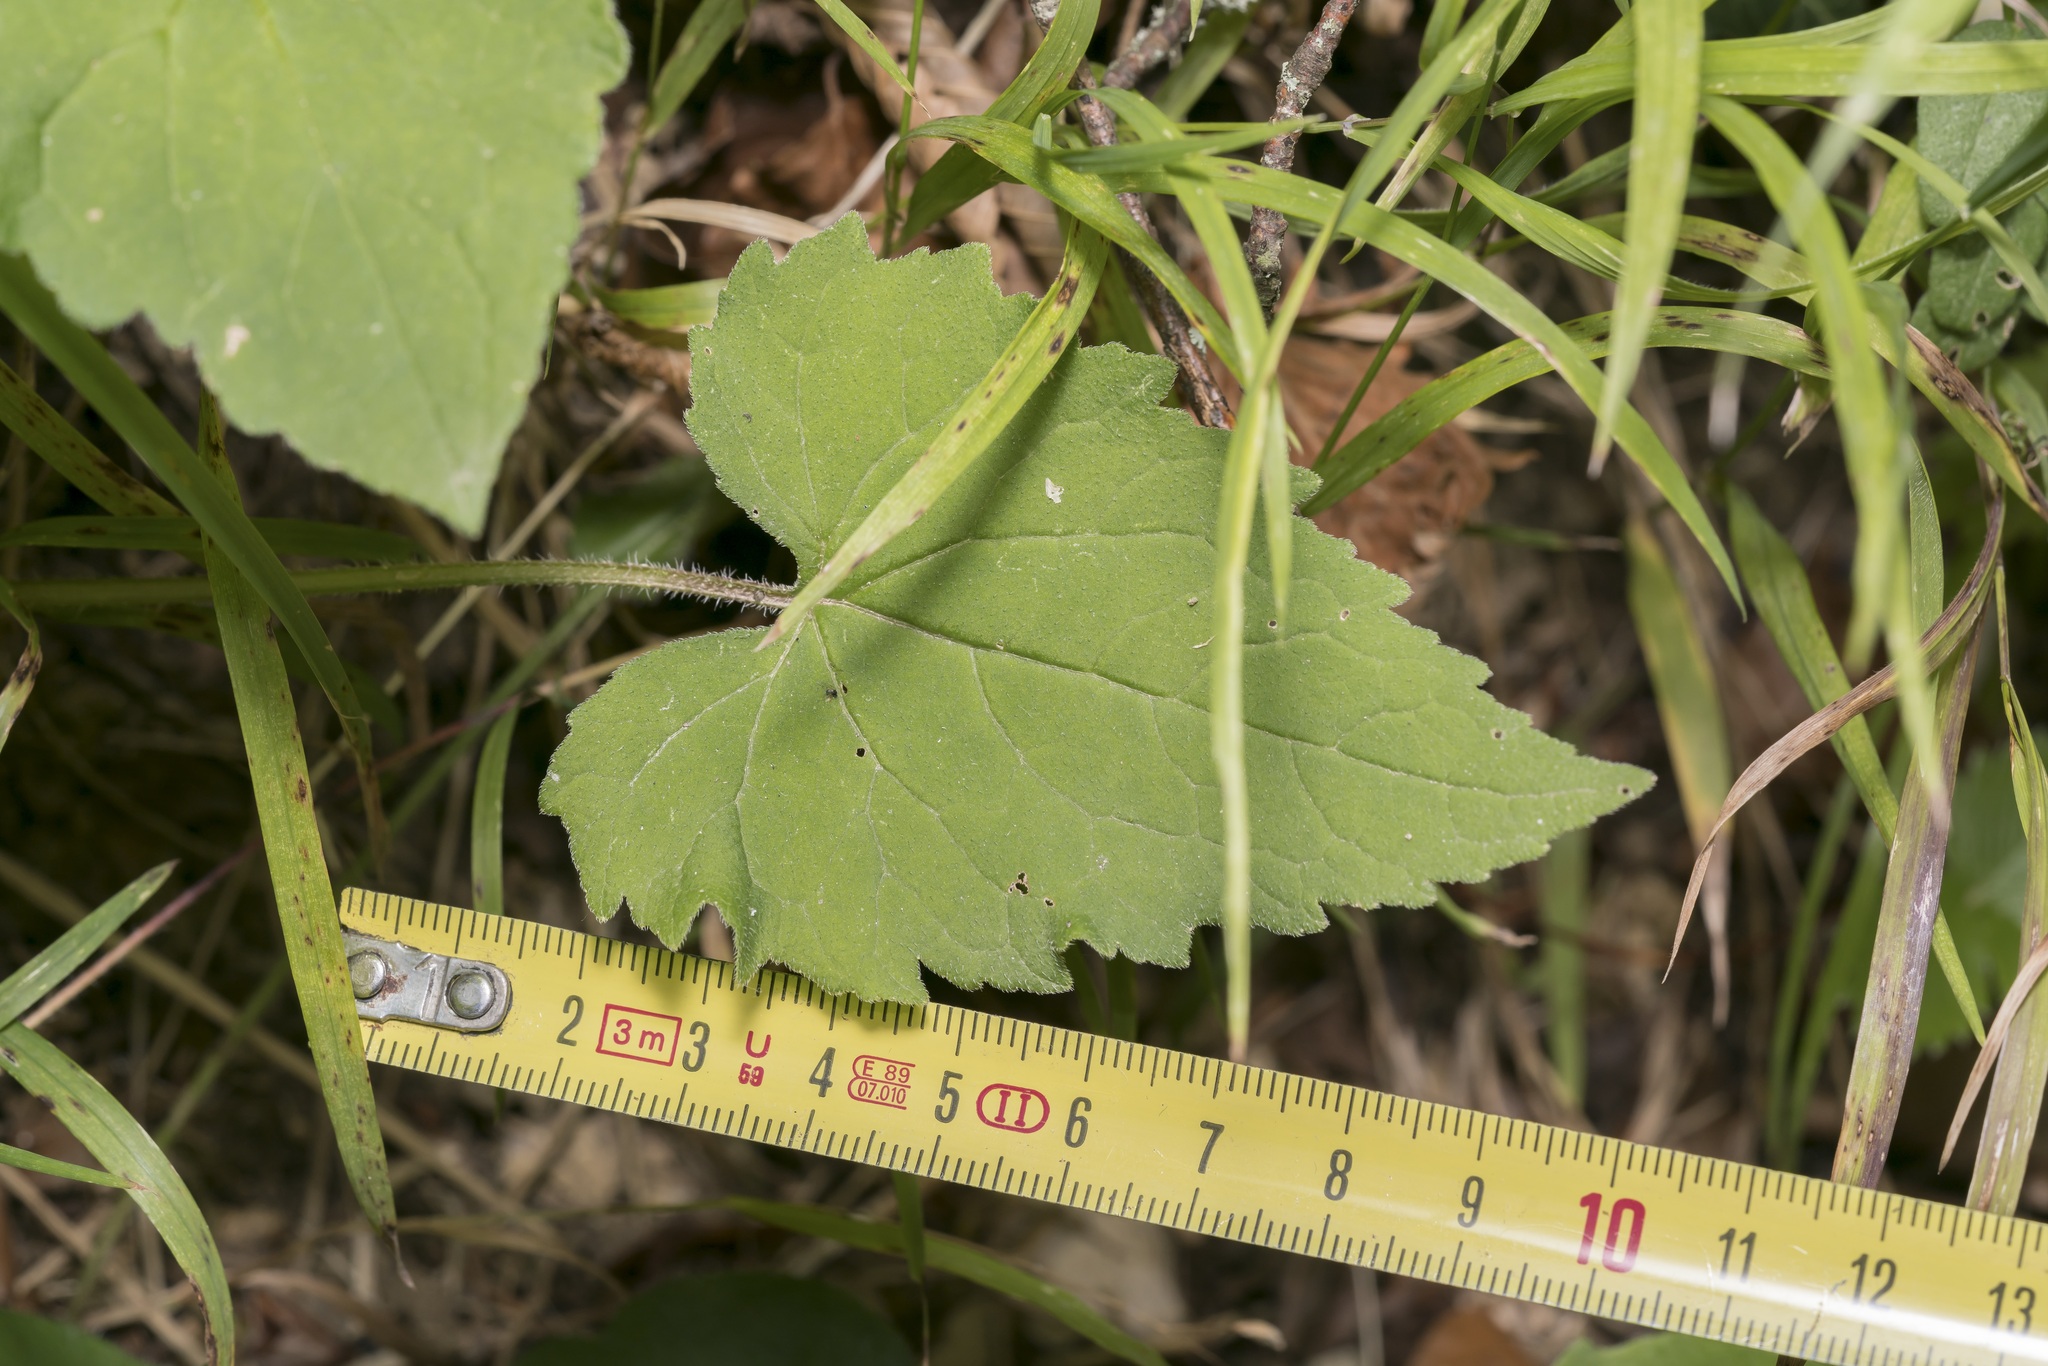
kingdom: Plantae
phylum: Tracheophyta
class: Magnoliopsida
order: Asterales
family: Campanulaceae
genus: Campanula
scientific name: Campanula trachelium
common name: Nettle-leaved bellflower
